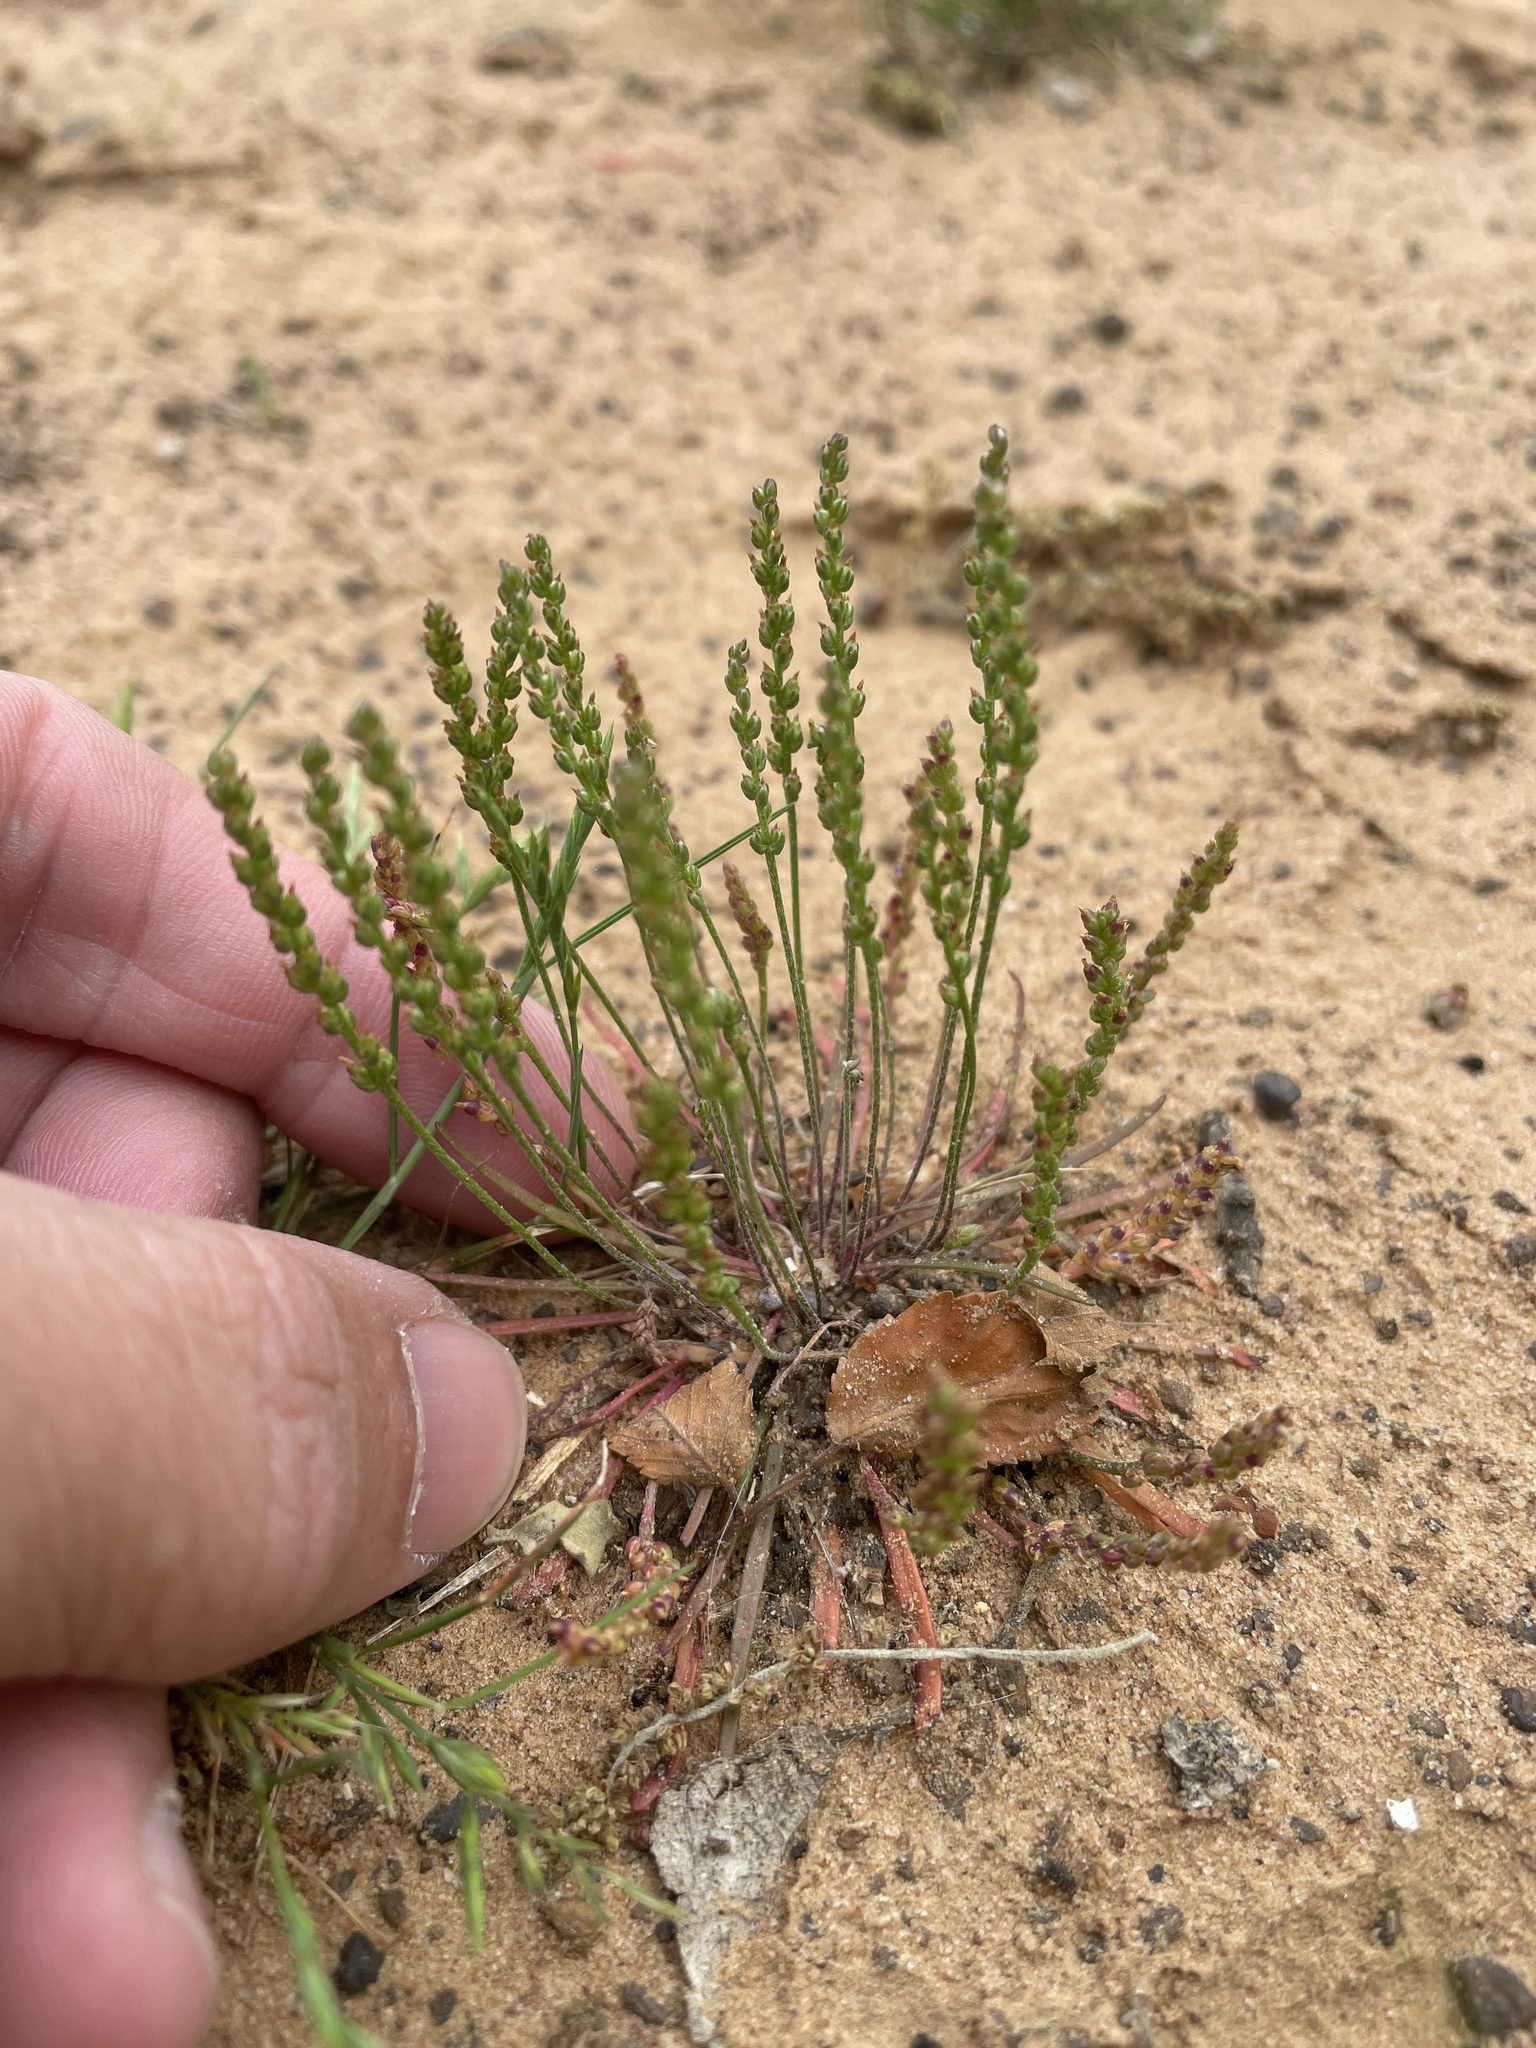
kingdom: Plantae
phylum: Tracheophyta
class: Magnoliopsida
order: Lamiales
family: Plantaginaceae
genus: Plantago
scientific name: Plantago heterophylla
